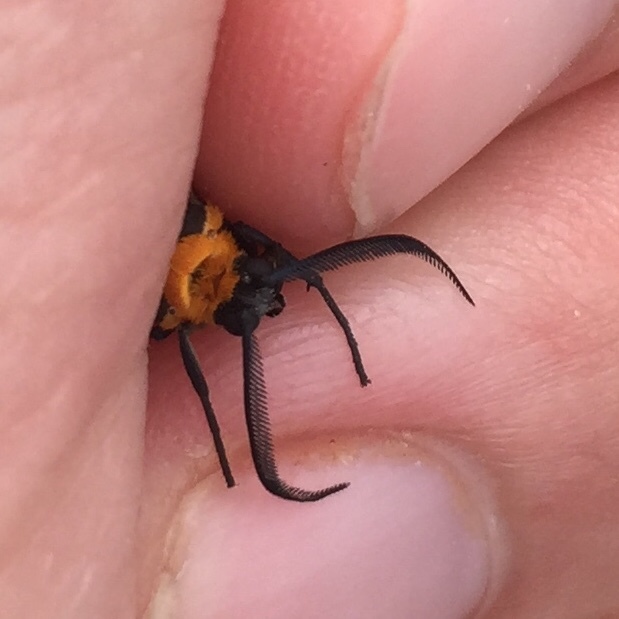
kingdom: Animalia
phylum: Arthropoda
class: Insecta
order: Lepidoptera
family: Erebidae
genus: Cisseps
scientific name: Cisseps fulvicollis
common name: Yellow-collared scape moth
